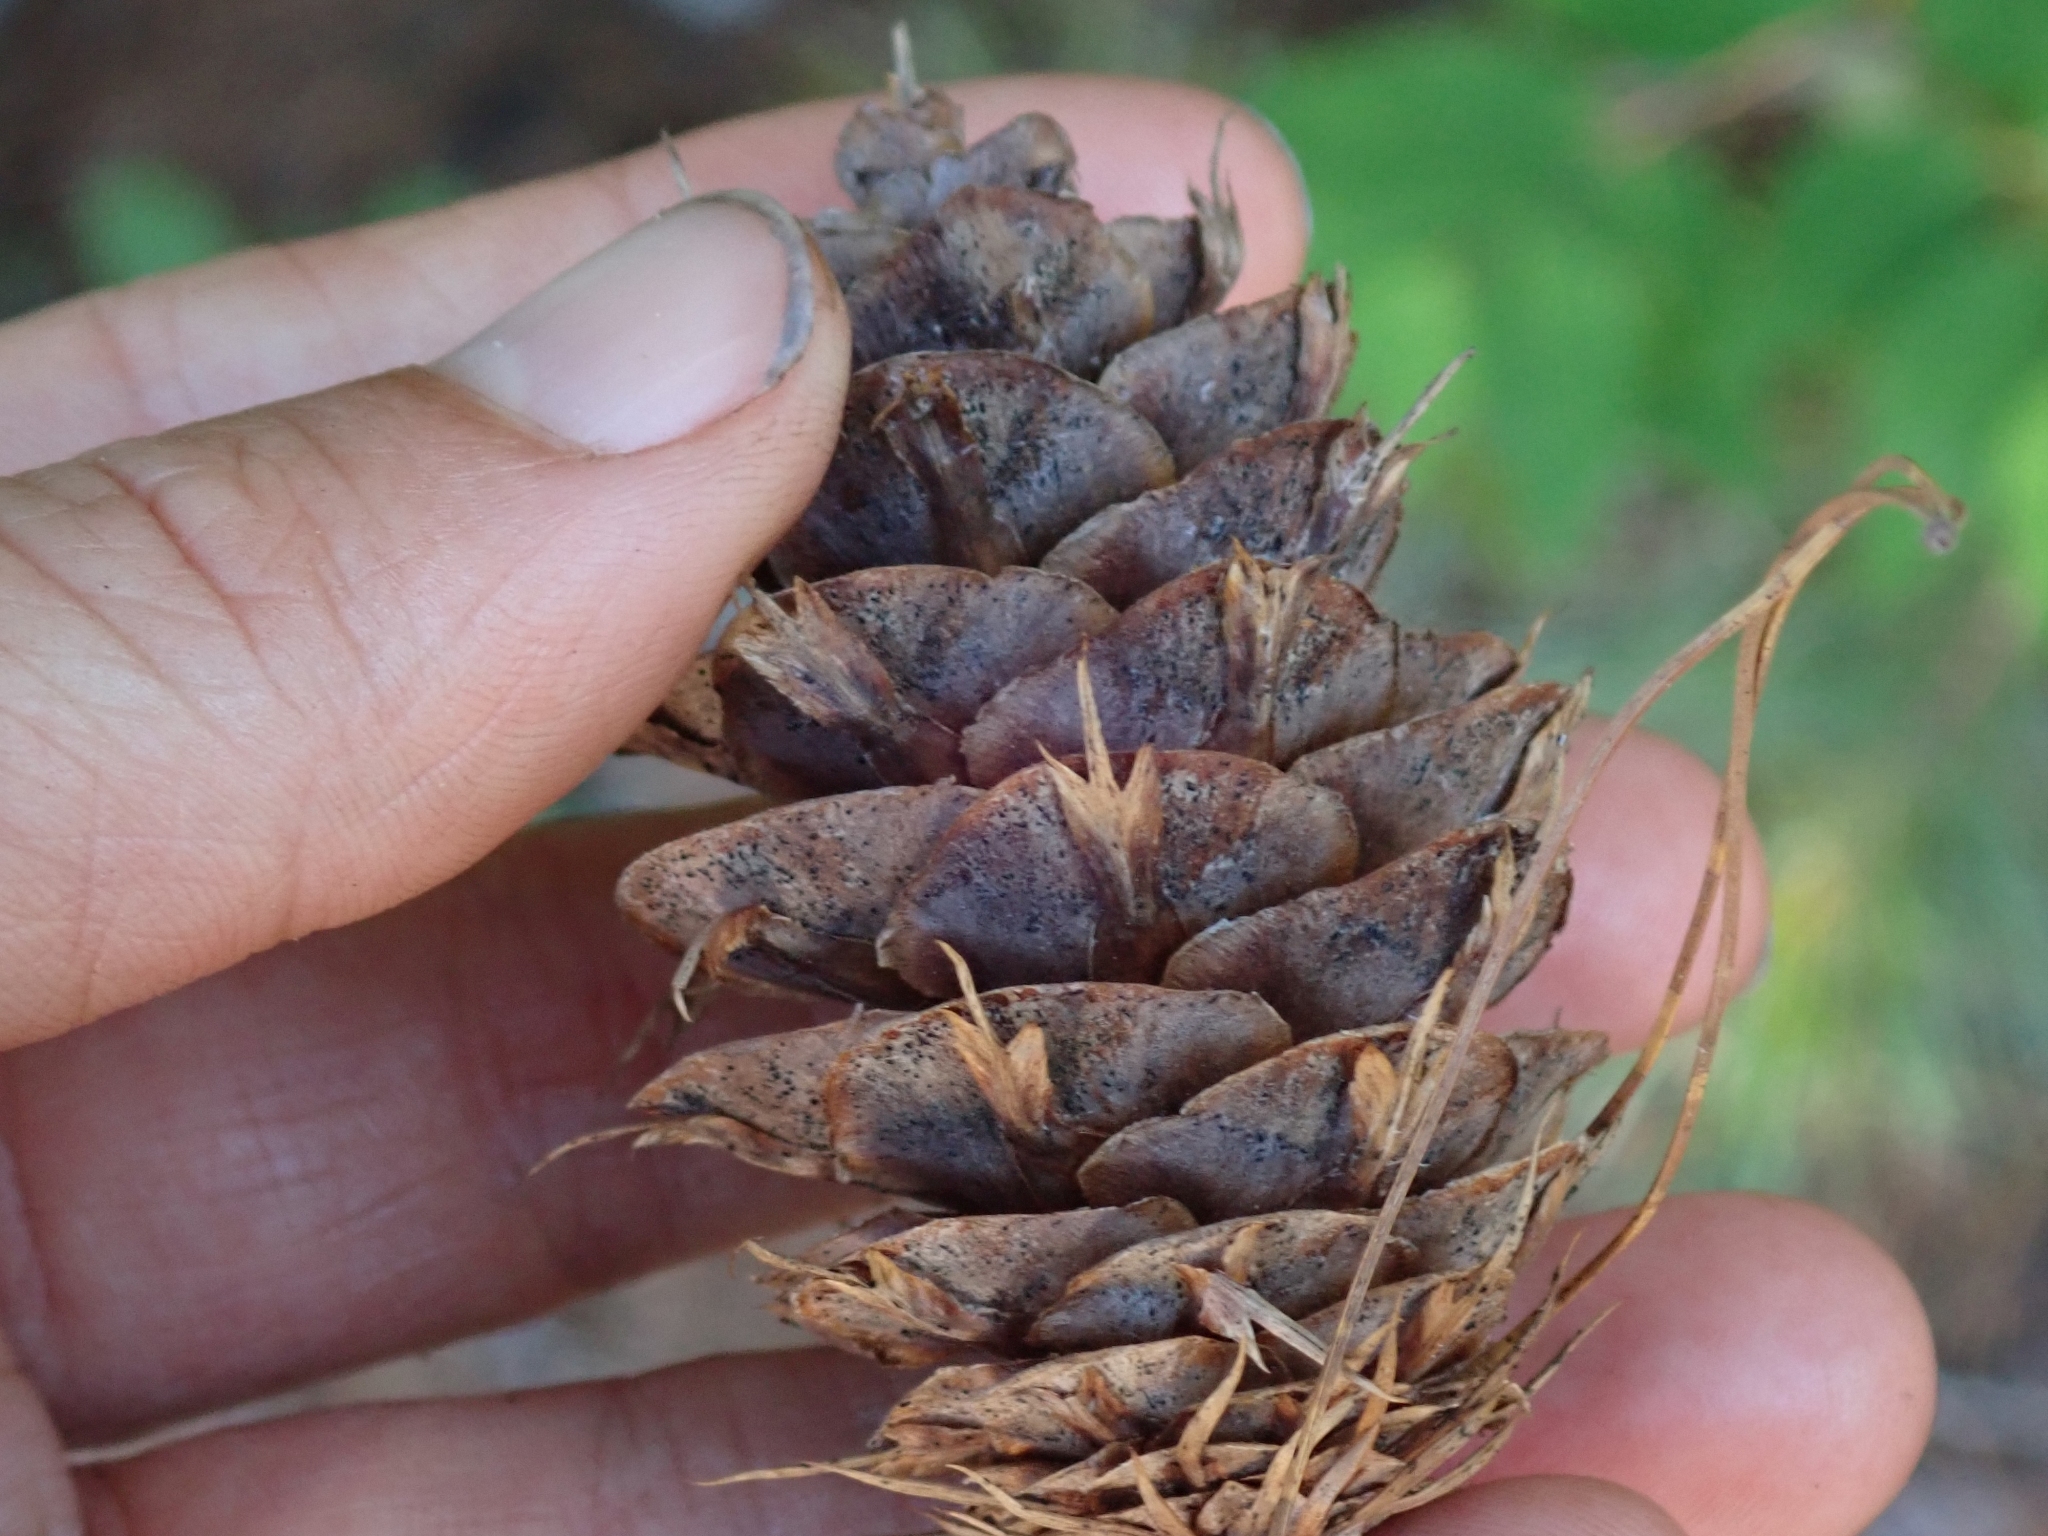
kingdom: Plantae
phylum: Tracheophyta
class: Pinopsida
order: Pinales
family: Pinaceae
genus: Pseudotsuga
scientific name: Pseudotsuga menziesii
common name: Douglas fir
